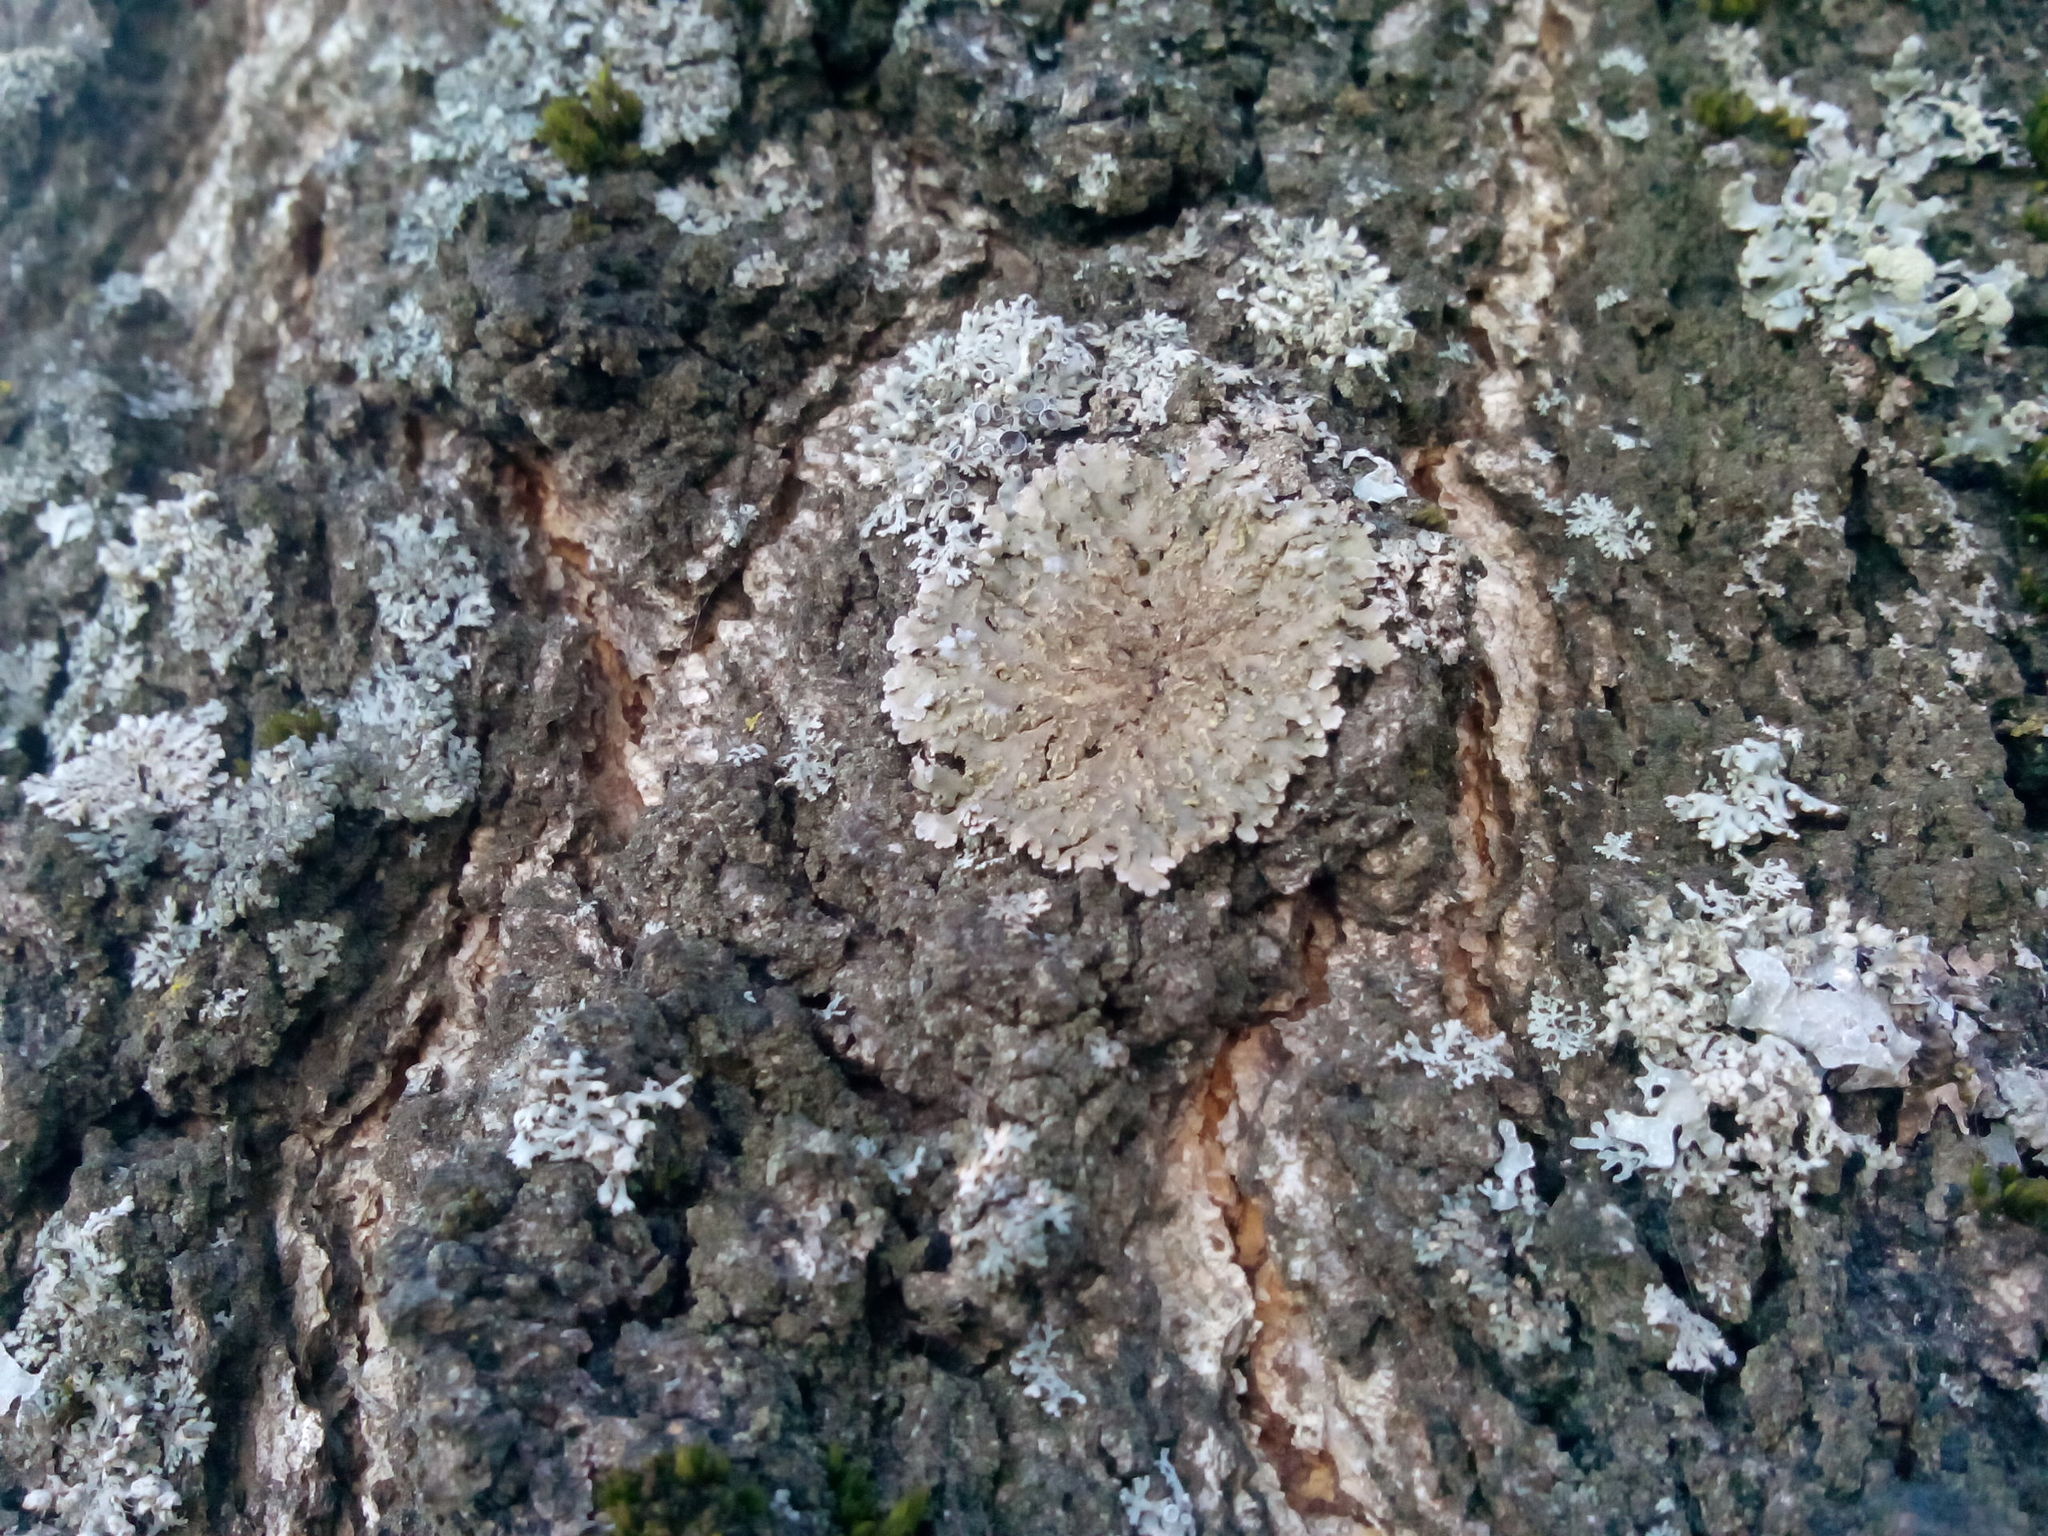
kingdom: Fungi
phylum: Ascomycota
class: Lecanoromycetes
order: Caliciales
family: Physciaceae
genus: Physconia
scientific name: Physconia enteroxantha
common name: Yellow-edged frost lichen
